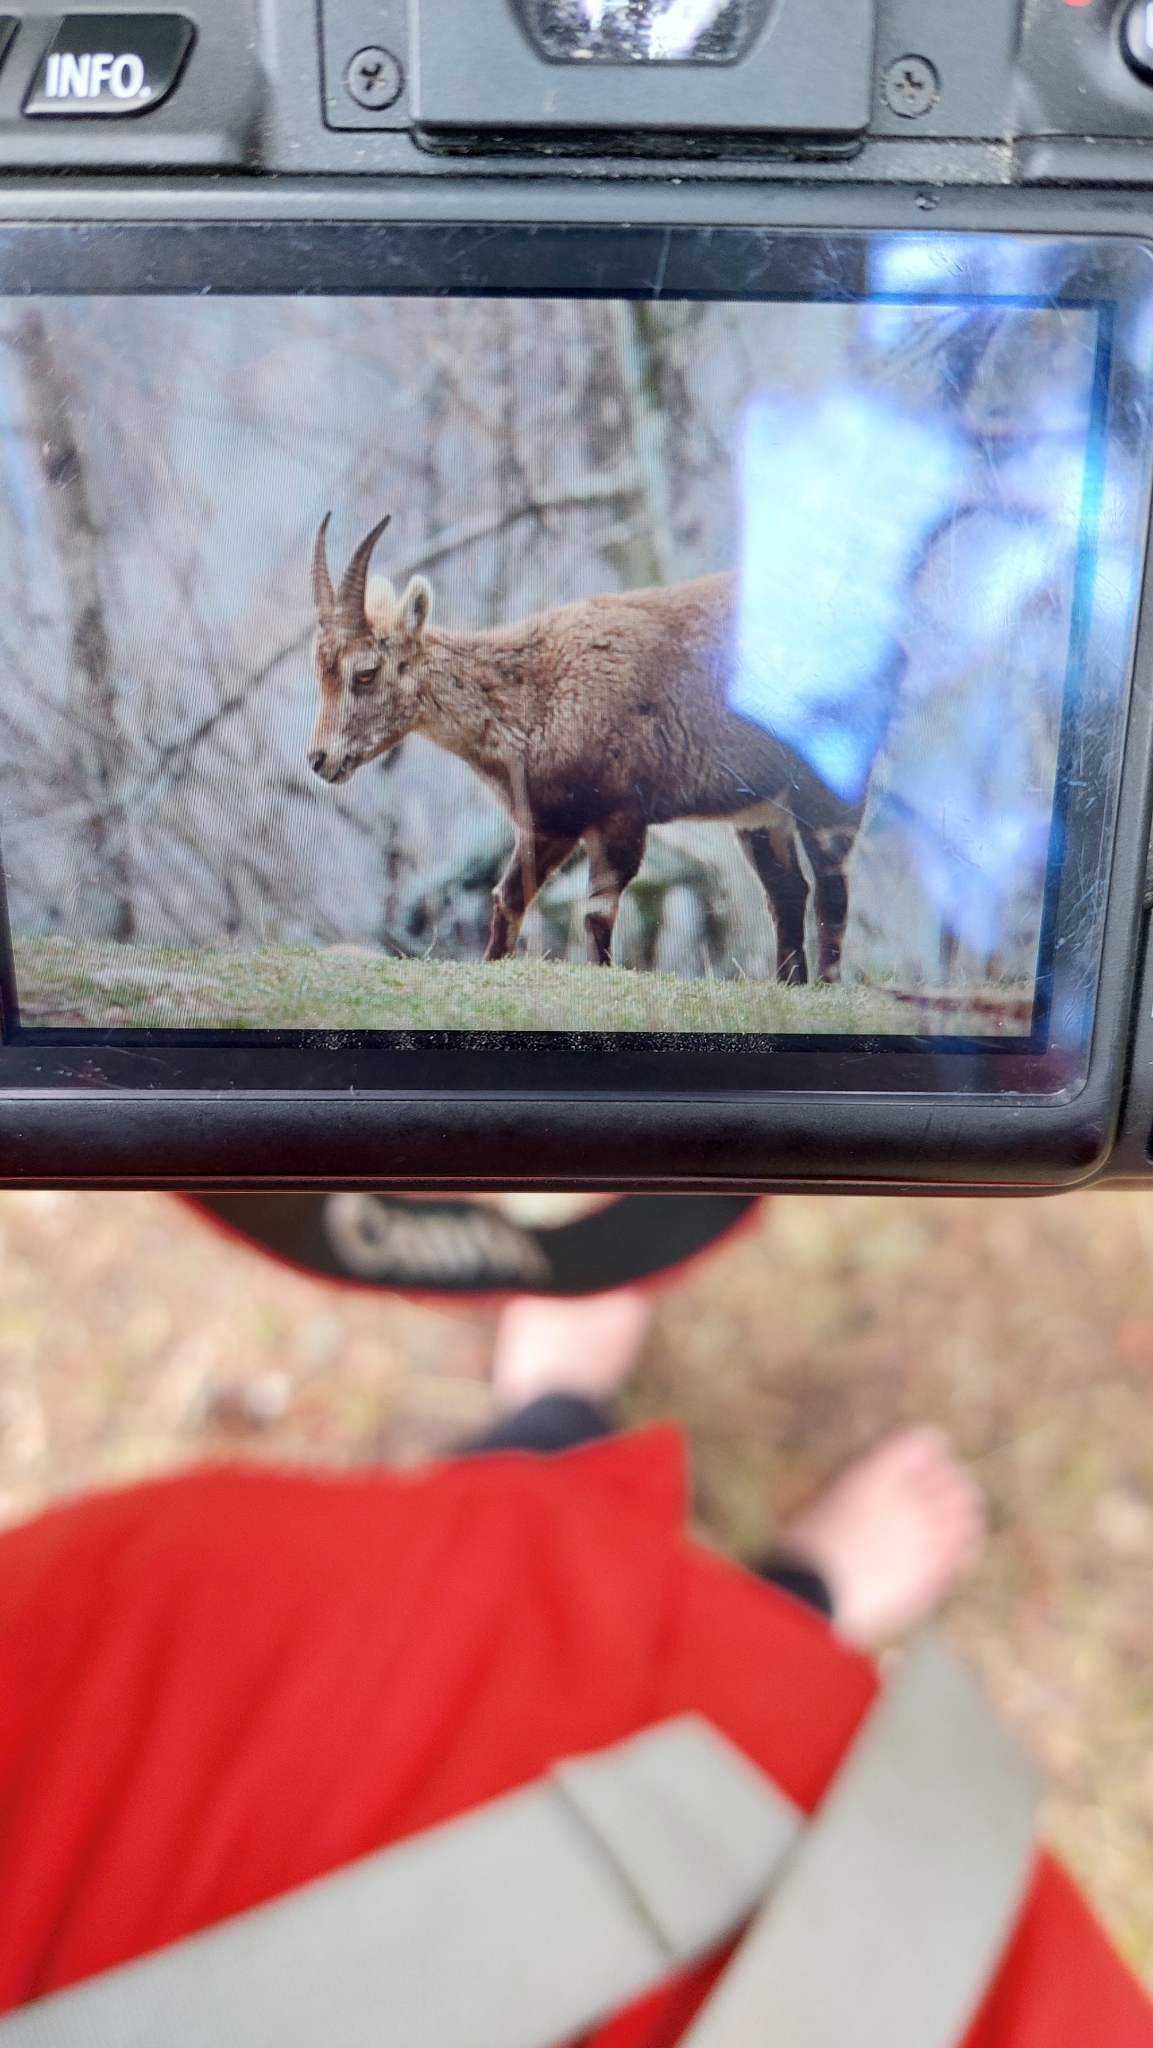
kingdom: Animalia
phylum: Chordata
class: Mammalia
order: Artiodactyla
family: Bovidae
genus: Capra
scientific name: Capra ibex
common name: Alpine ibex
